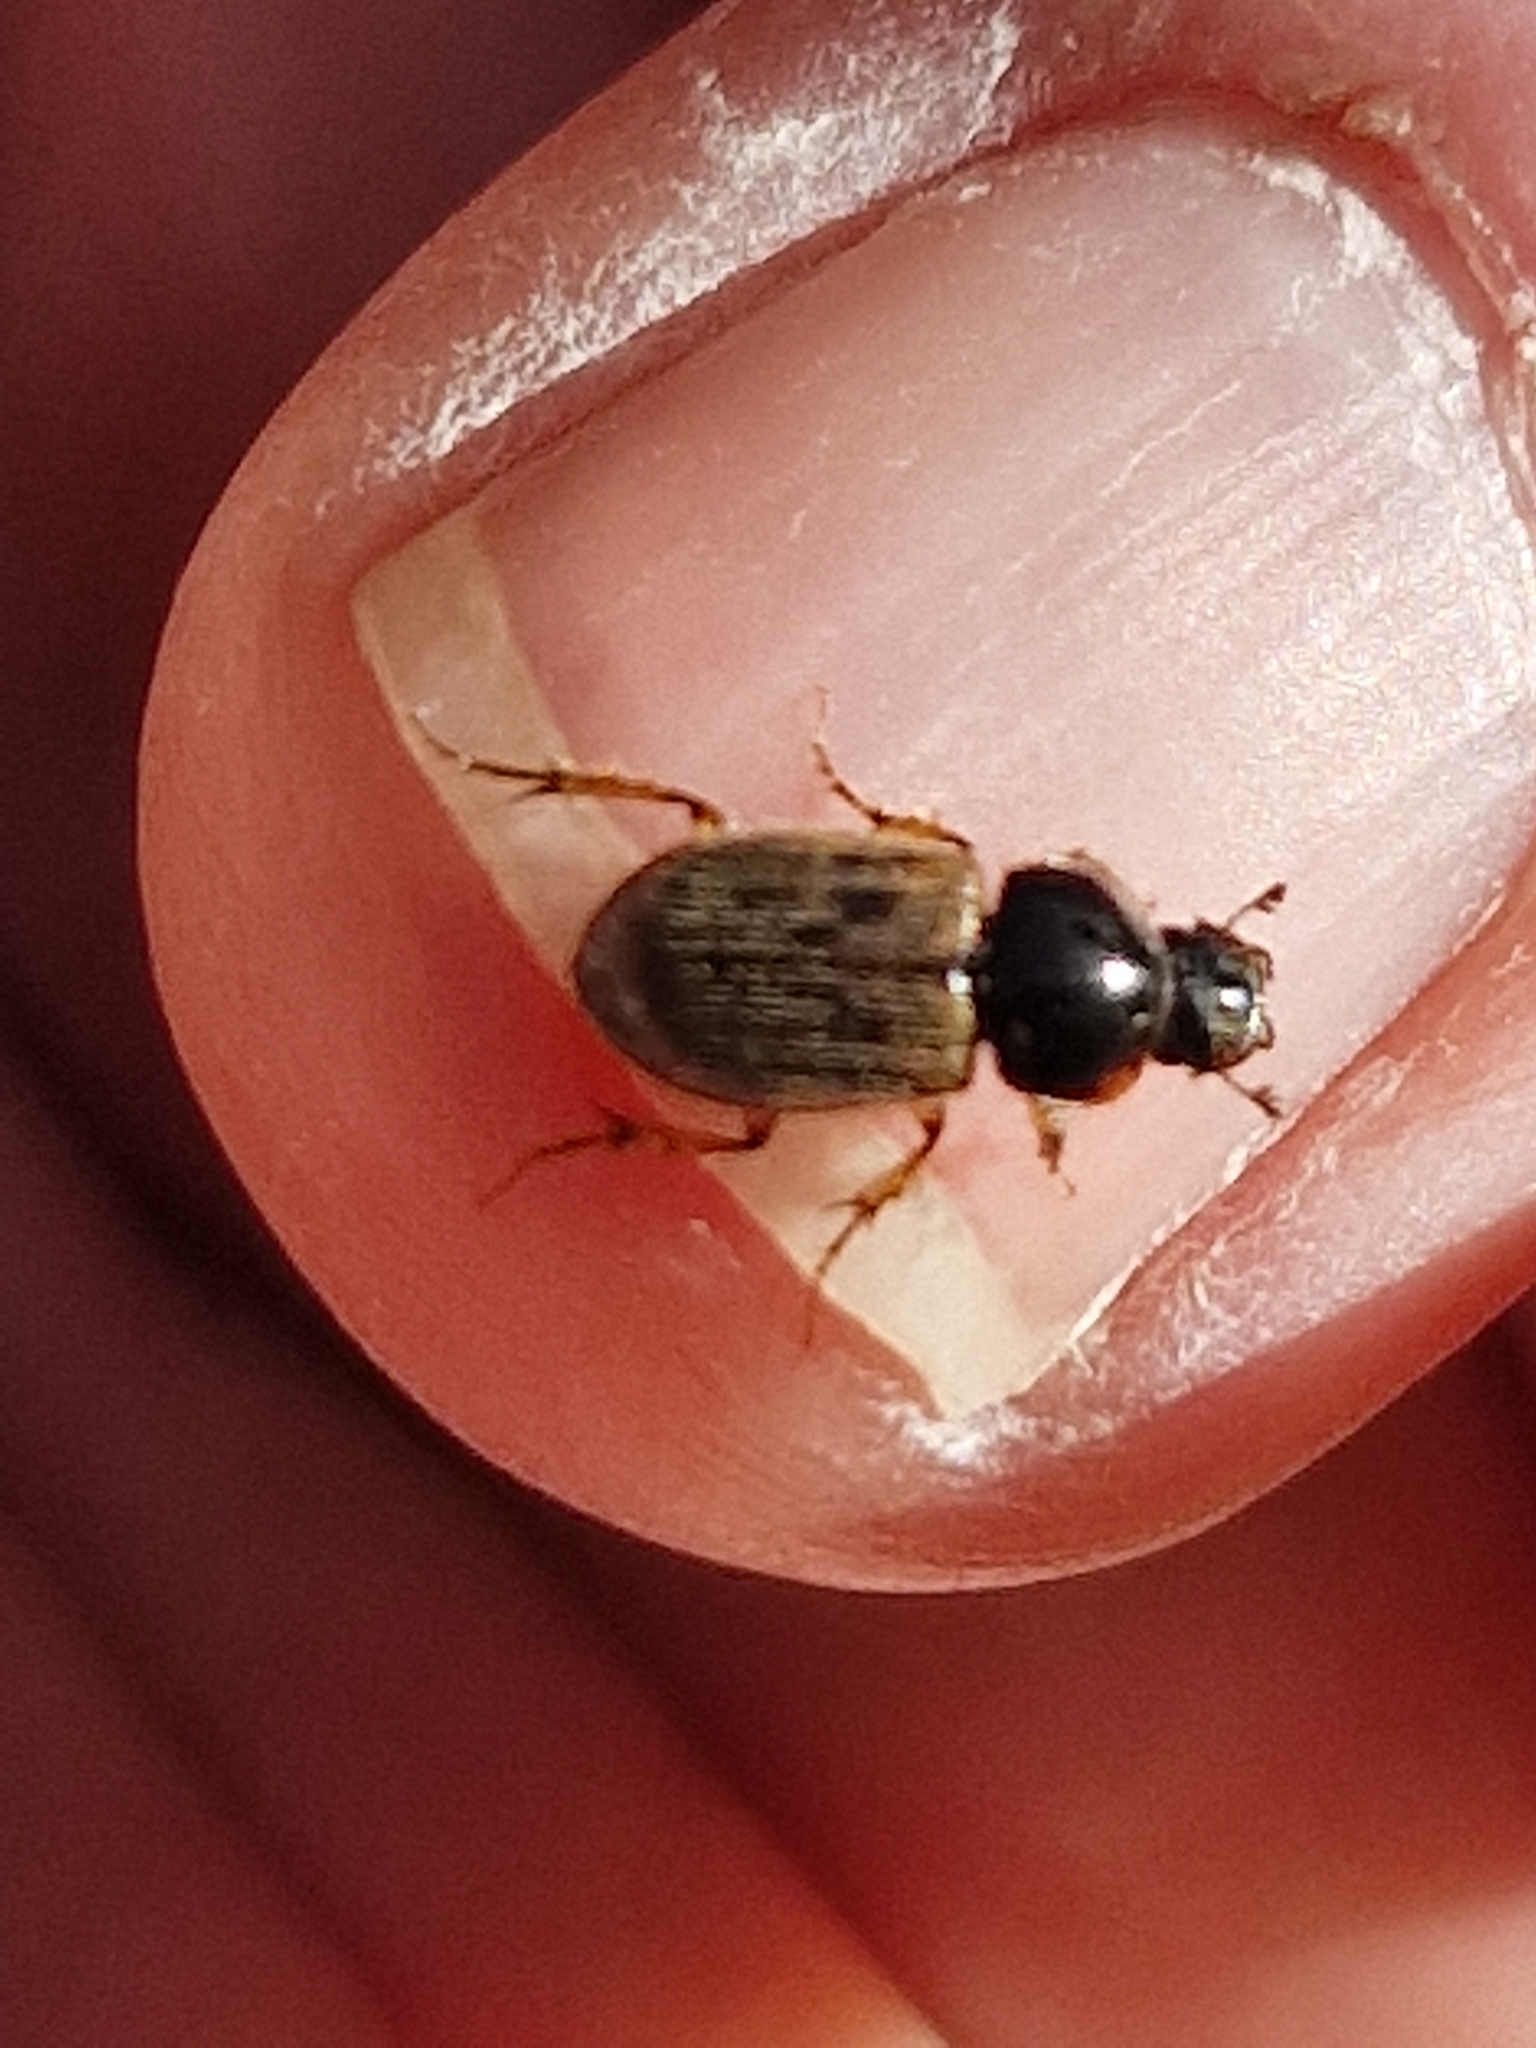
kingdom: Animalia
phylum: Arthropoda
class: Insecta
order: Coleoptera
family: Scarabaeidae
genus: Nimbus
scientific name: Nimbus contaminatus
